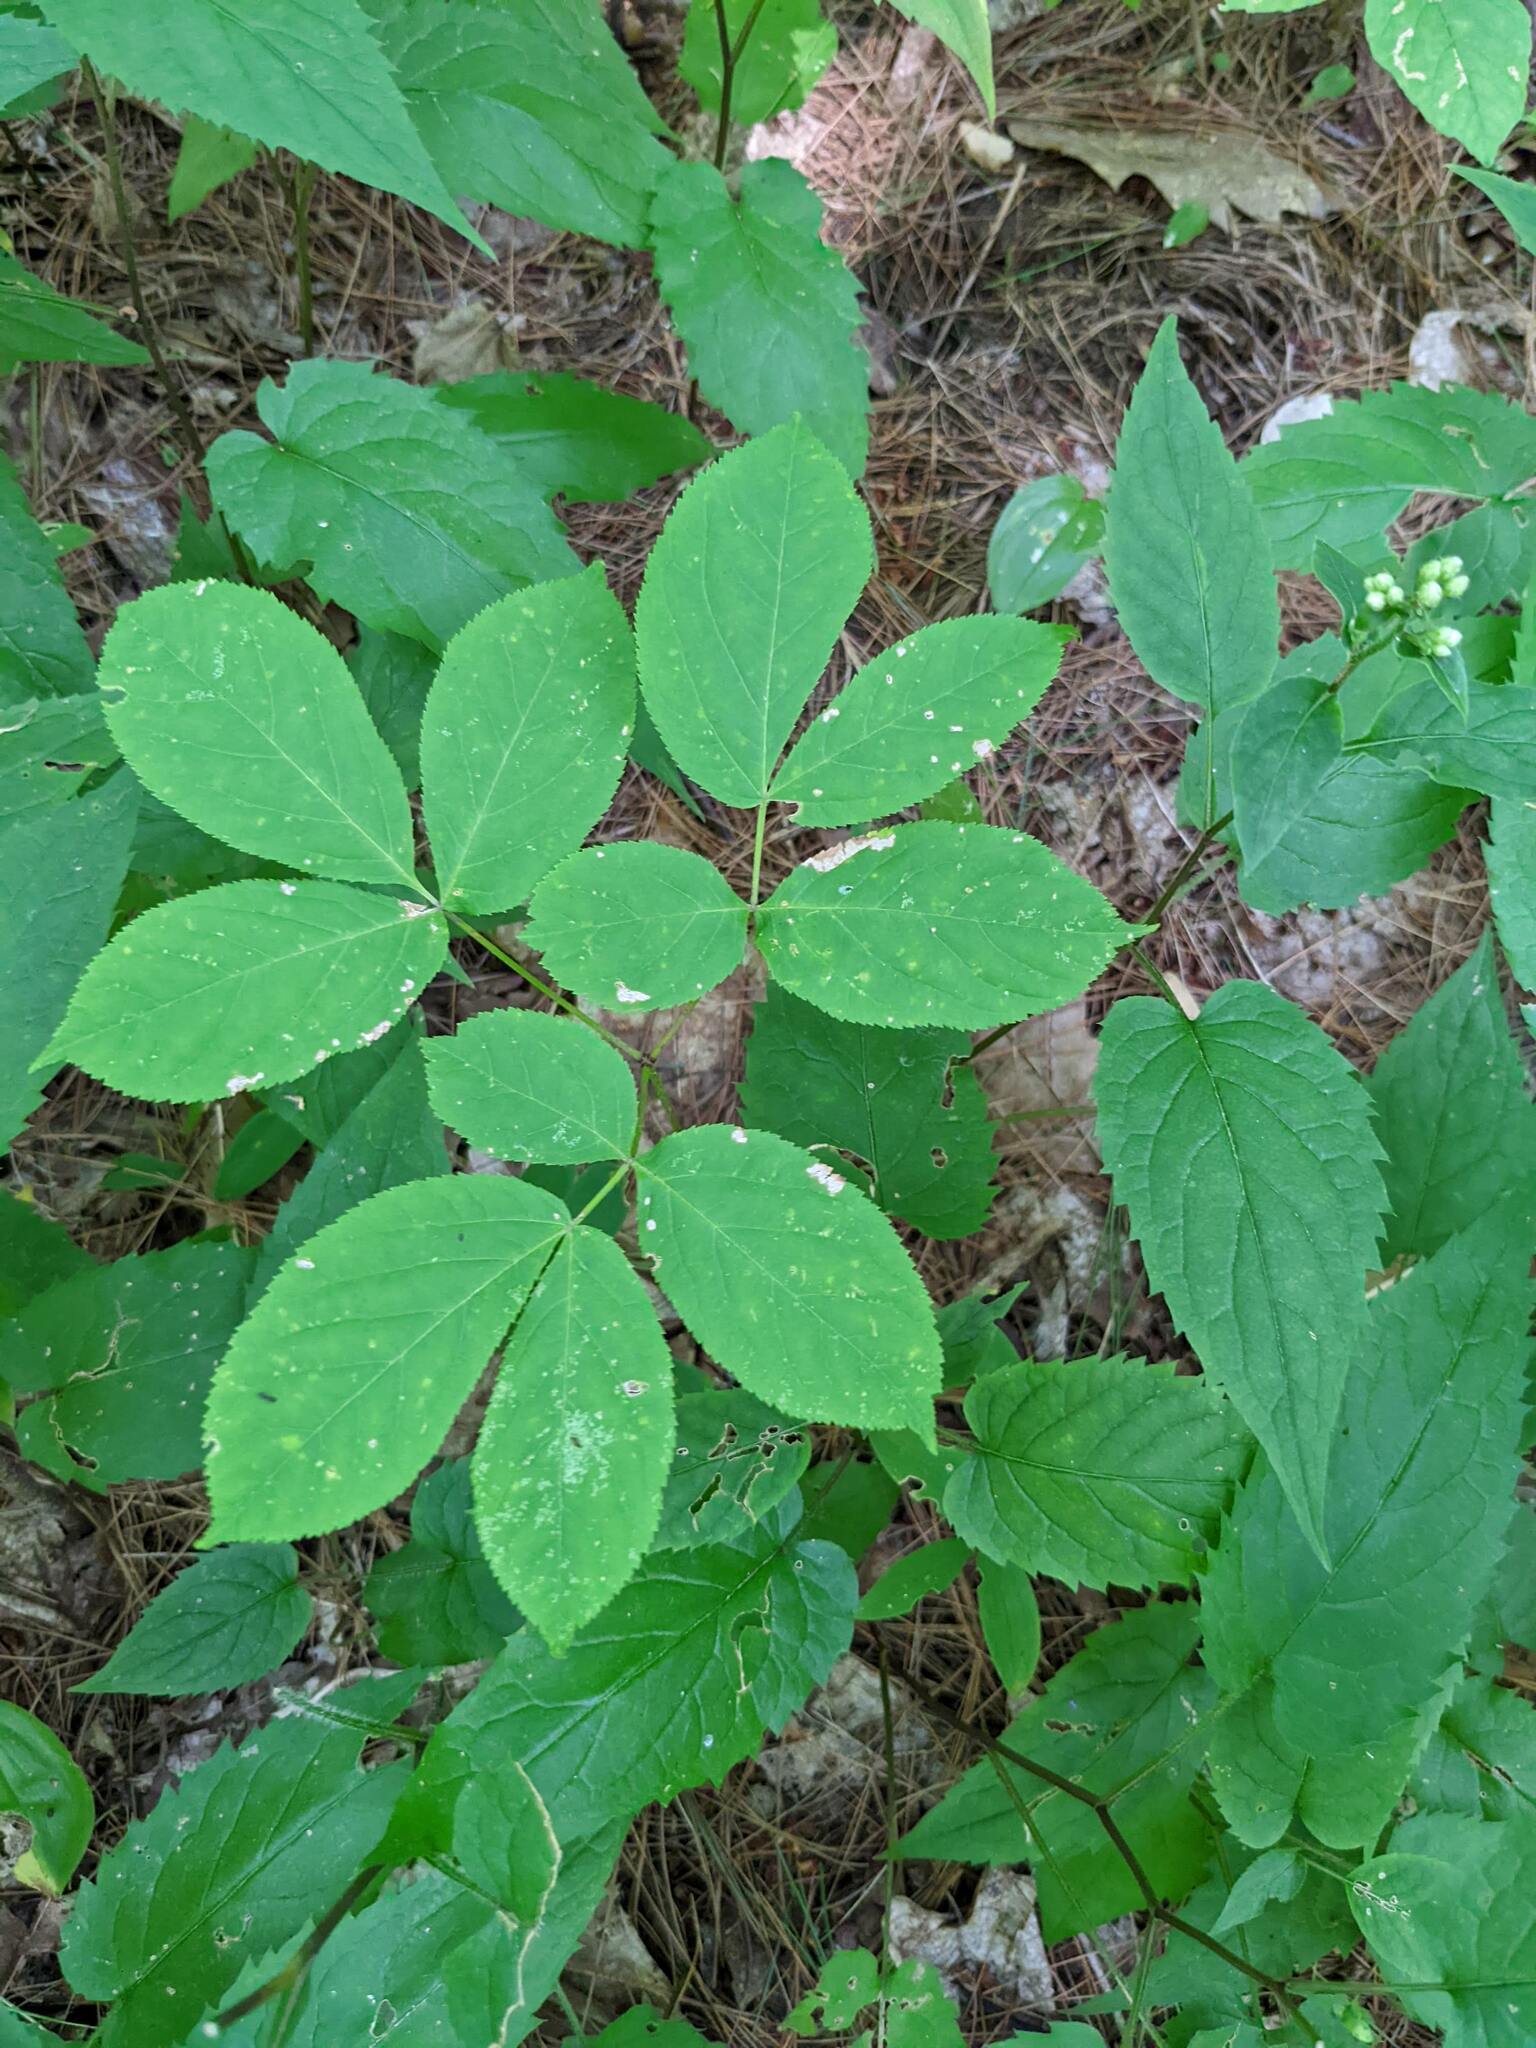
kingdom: Plantae
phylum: Tracheophyta
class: Magnoliopsida
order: Apiales
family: Araliaceae
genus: Aralia
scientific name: Aralia nudicaulis
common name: Wild sarsaparilla
